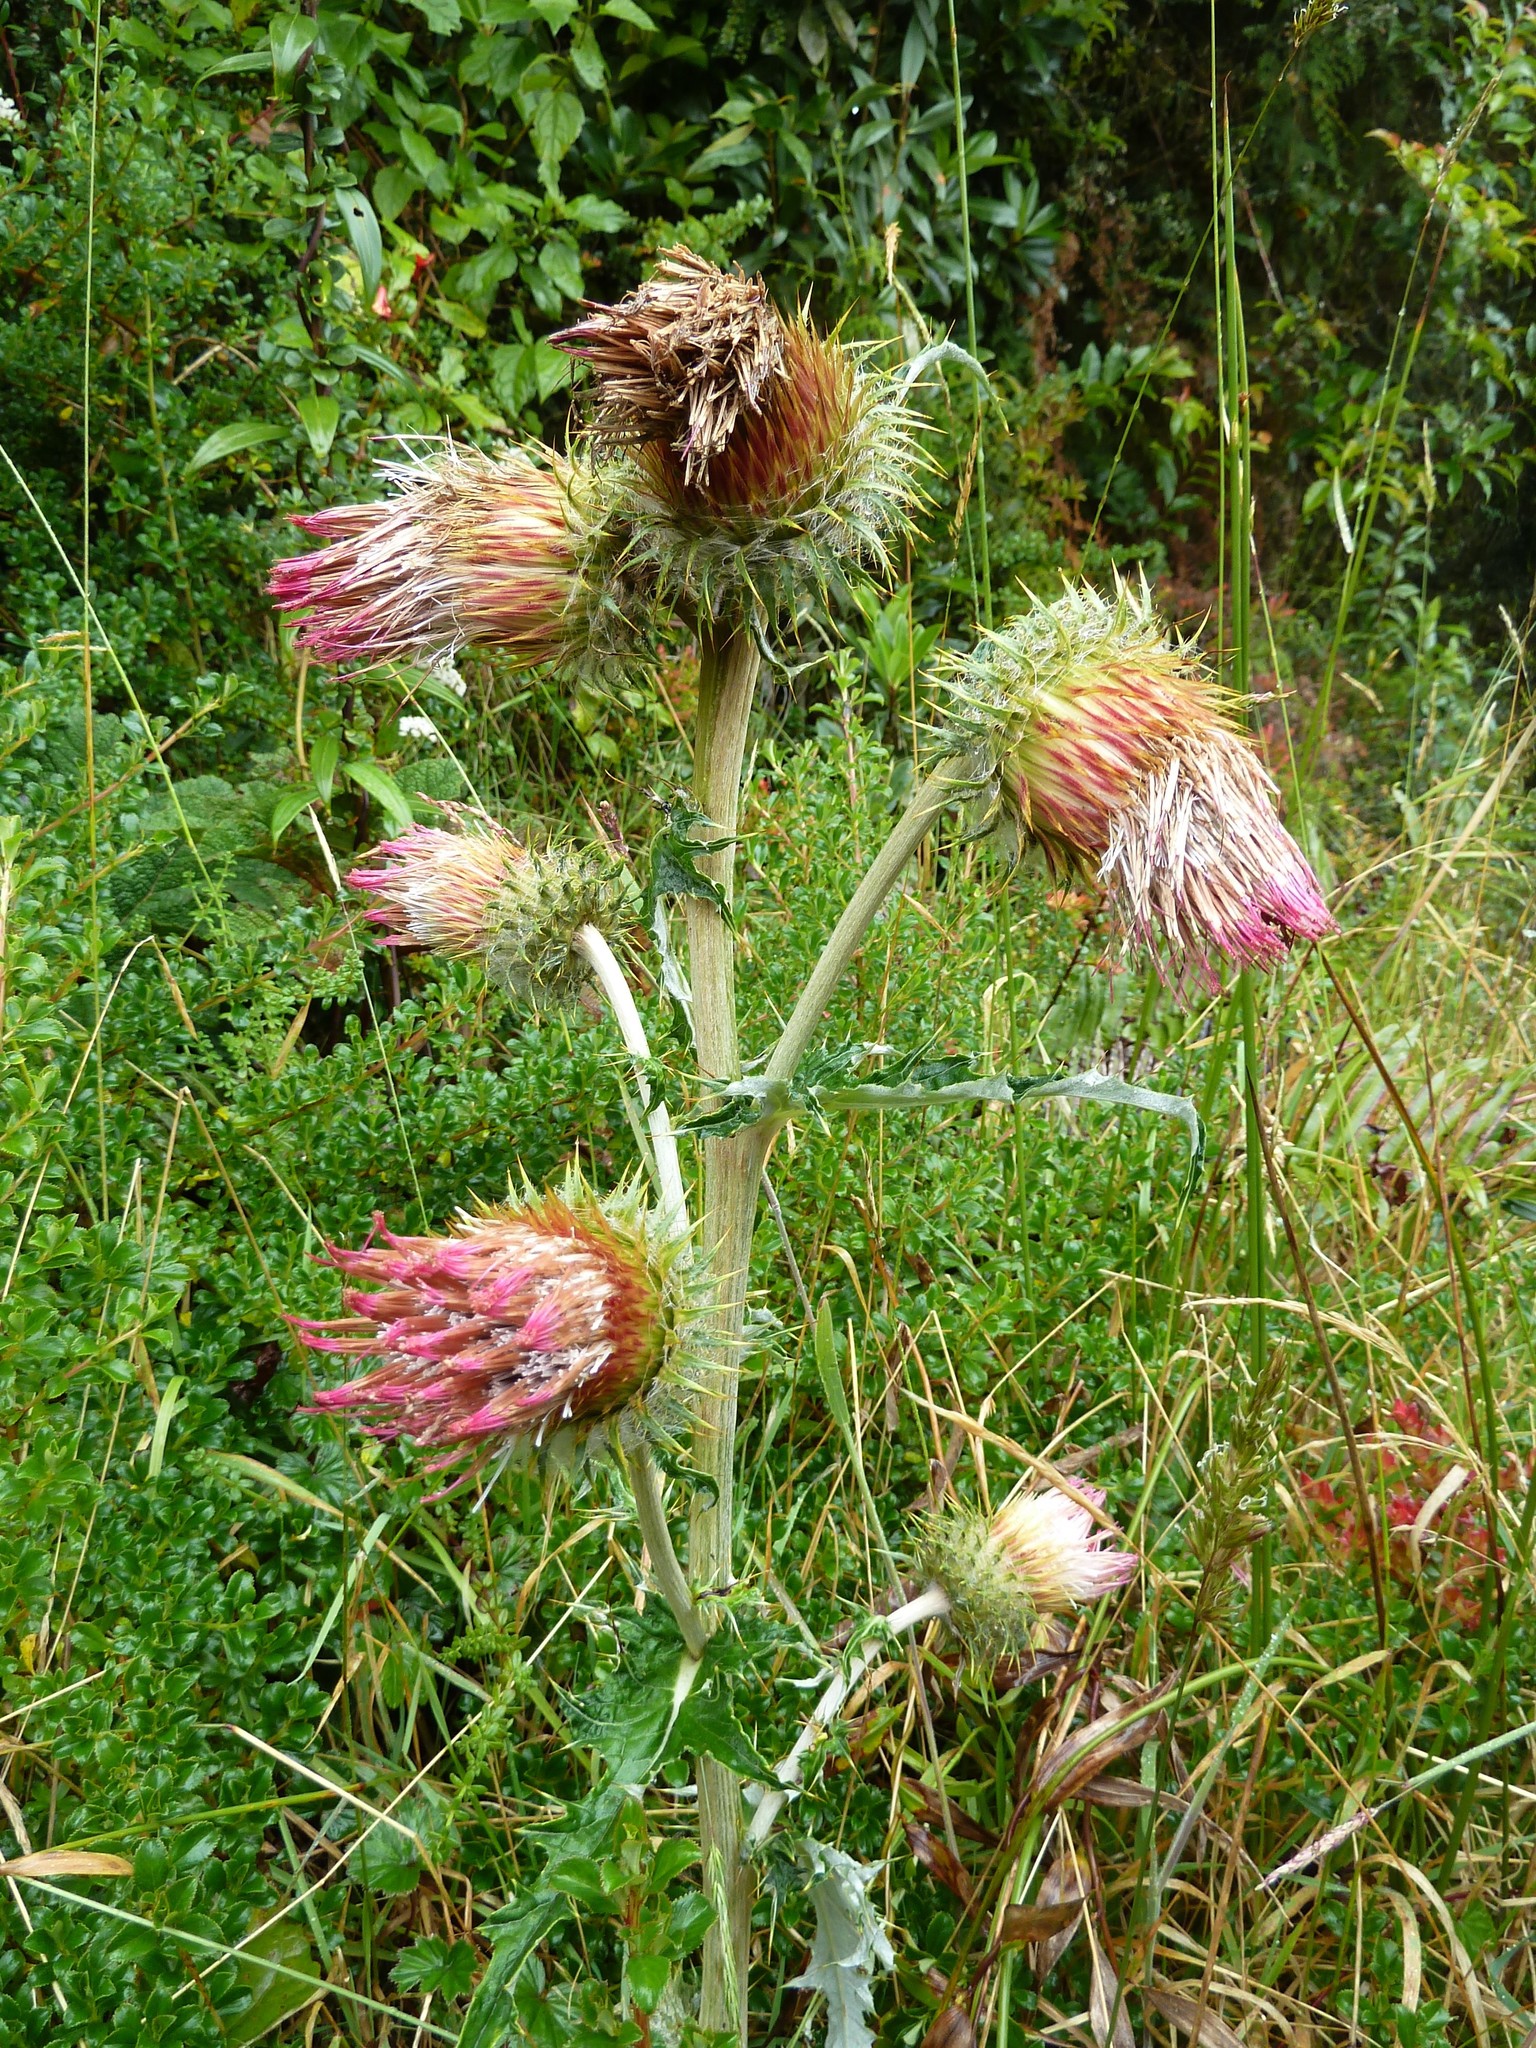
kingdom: Plantae
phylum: Tracheophyta
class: Magnoliopsida
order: Asterales
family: Asteraceae
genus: Cirsium
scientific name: Cirsium subcoriaceum
